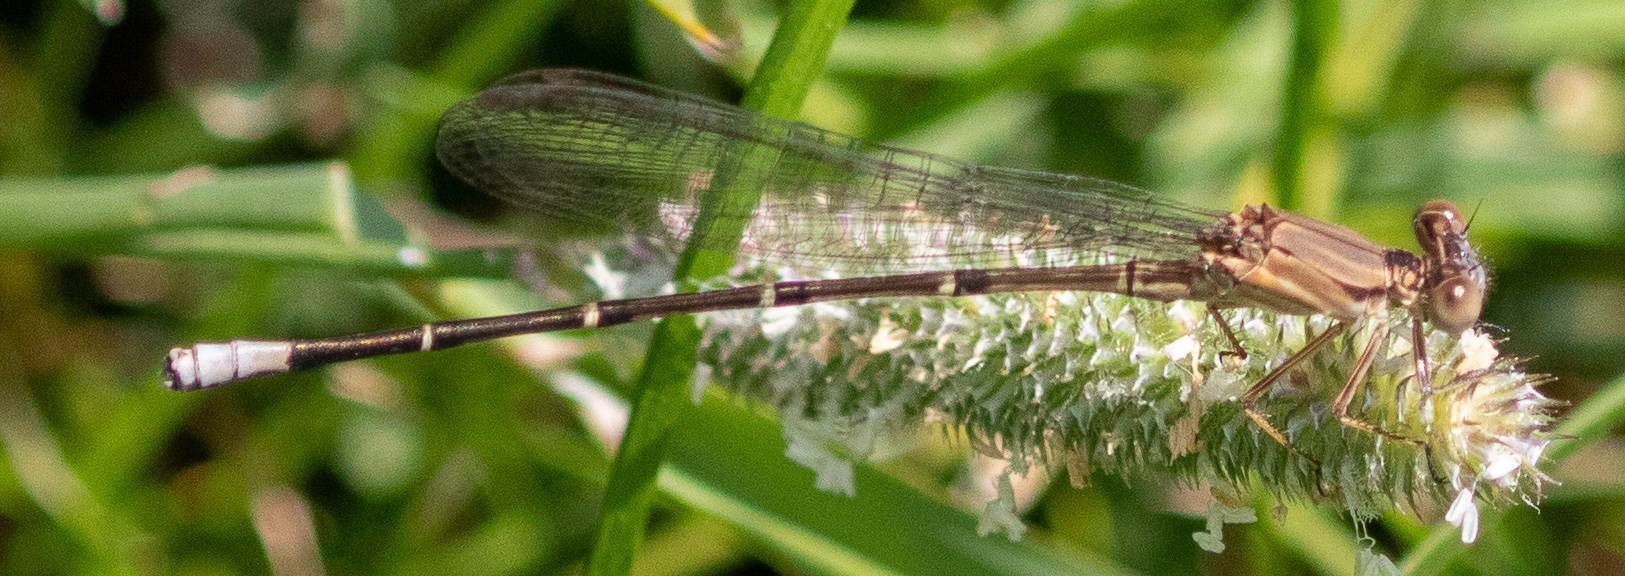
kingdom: Animalia
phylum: Arthropoda
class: Insecta
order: Odonata
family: Coenagrionidae
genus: Argia
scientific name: Argia apicalis
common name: Blue-fronted dancer
